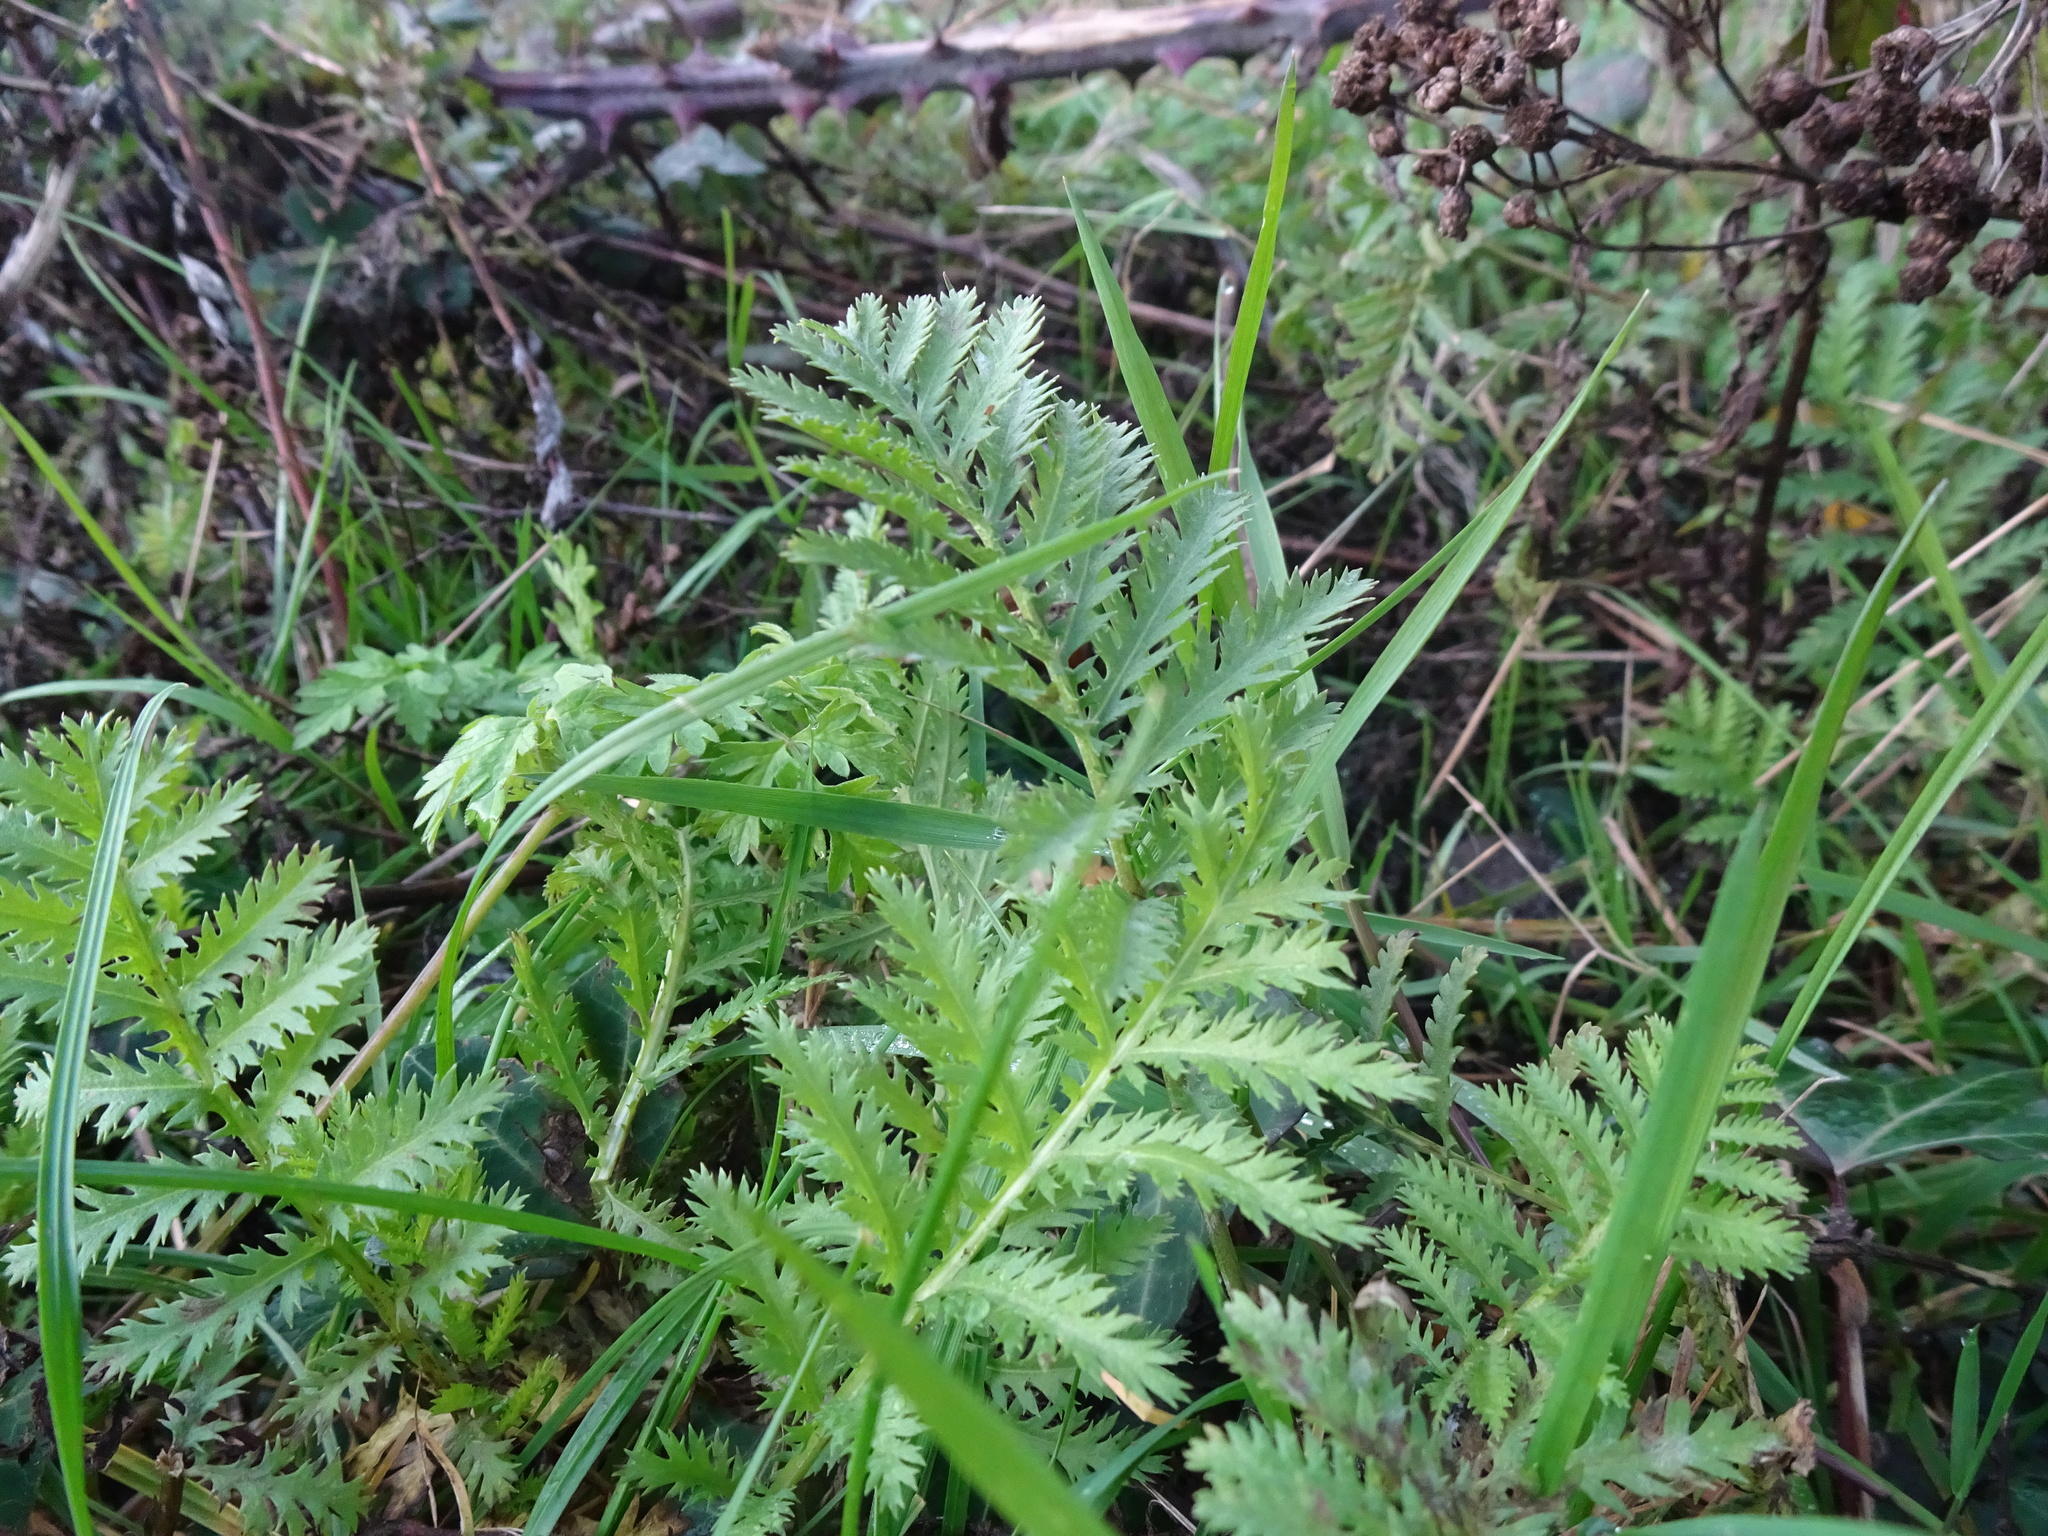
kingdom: Plantae
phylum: Tracheophyta
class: Magnoliopsida
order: Asterales
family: Asteraceae
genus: Tanacetum
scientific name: Tanacetum vulgare
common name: Common tansy
